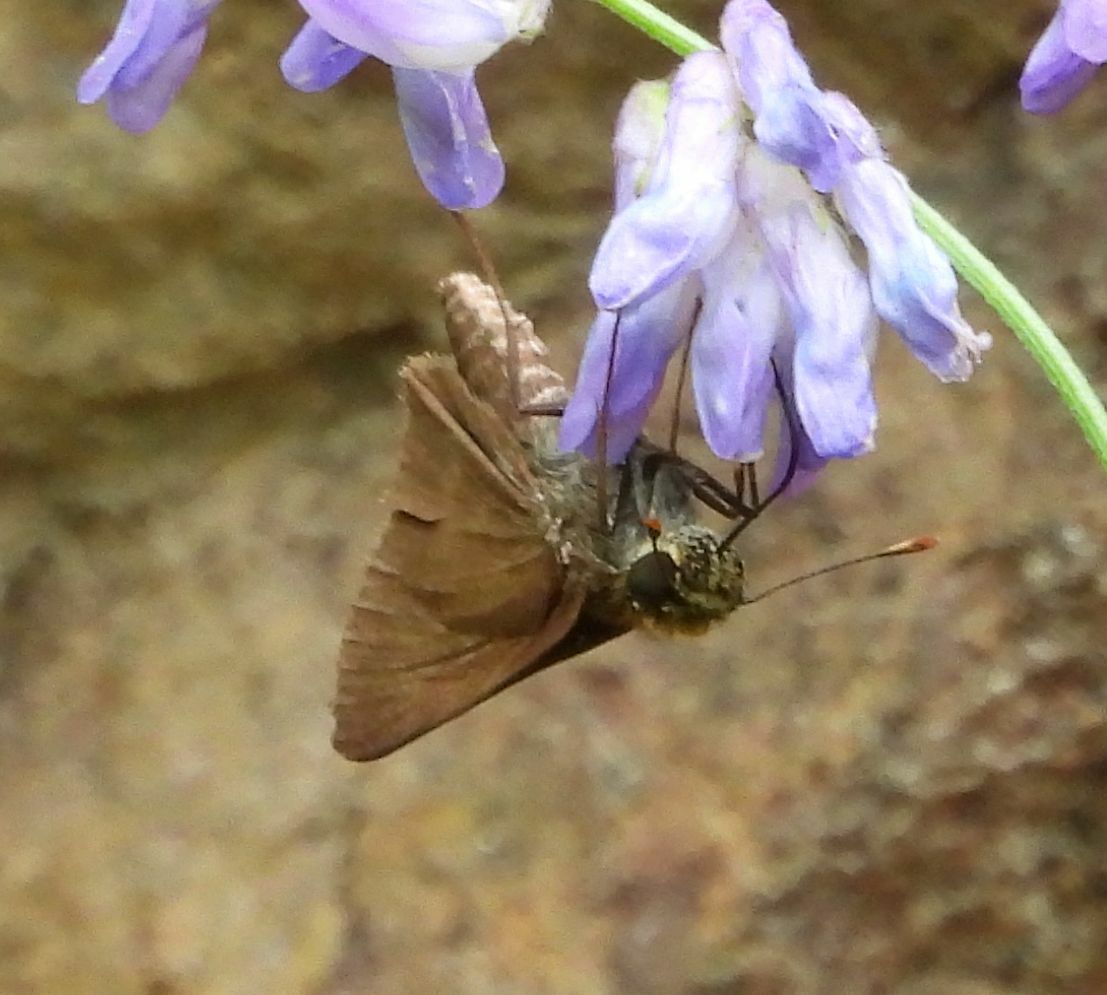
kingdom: Animalia
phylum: Arthropoda
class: Insecta
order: Lepidoptera
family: Hesperiidae
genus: Euphyes
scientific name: Euphyes vestris
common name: Dun skipper
